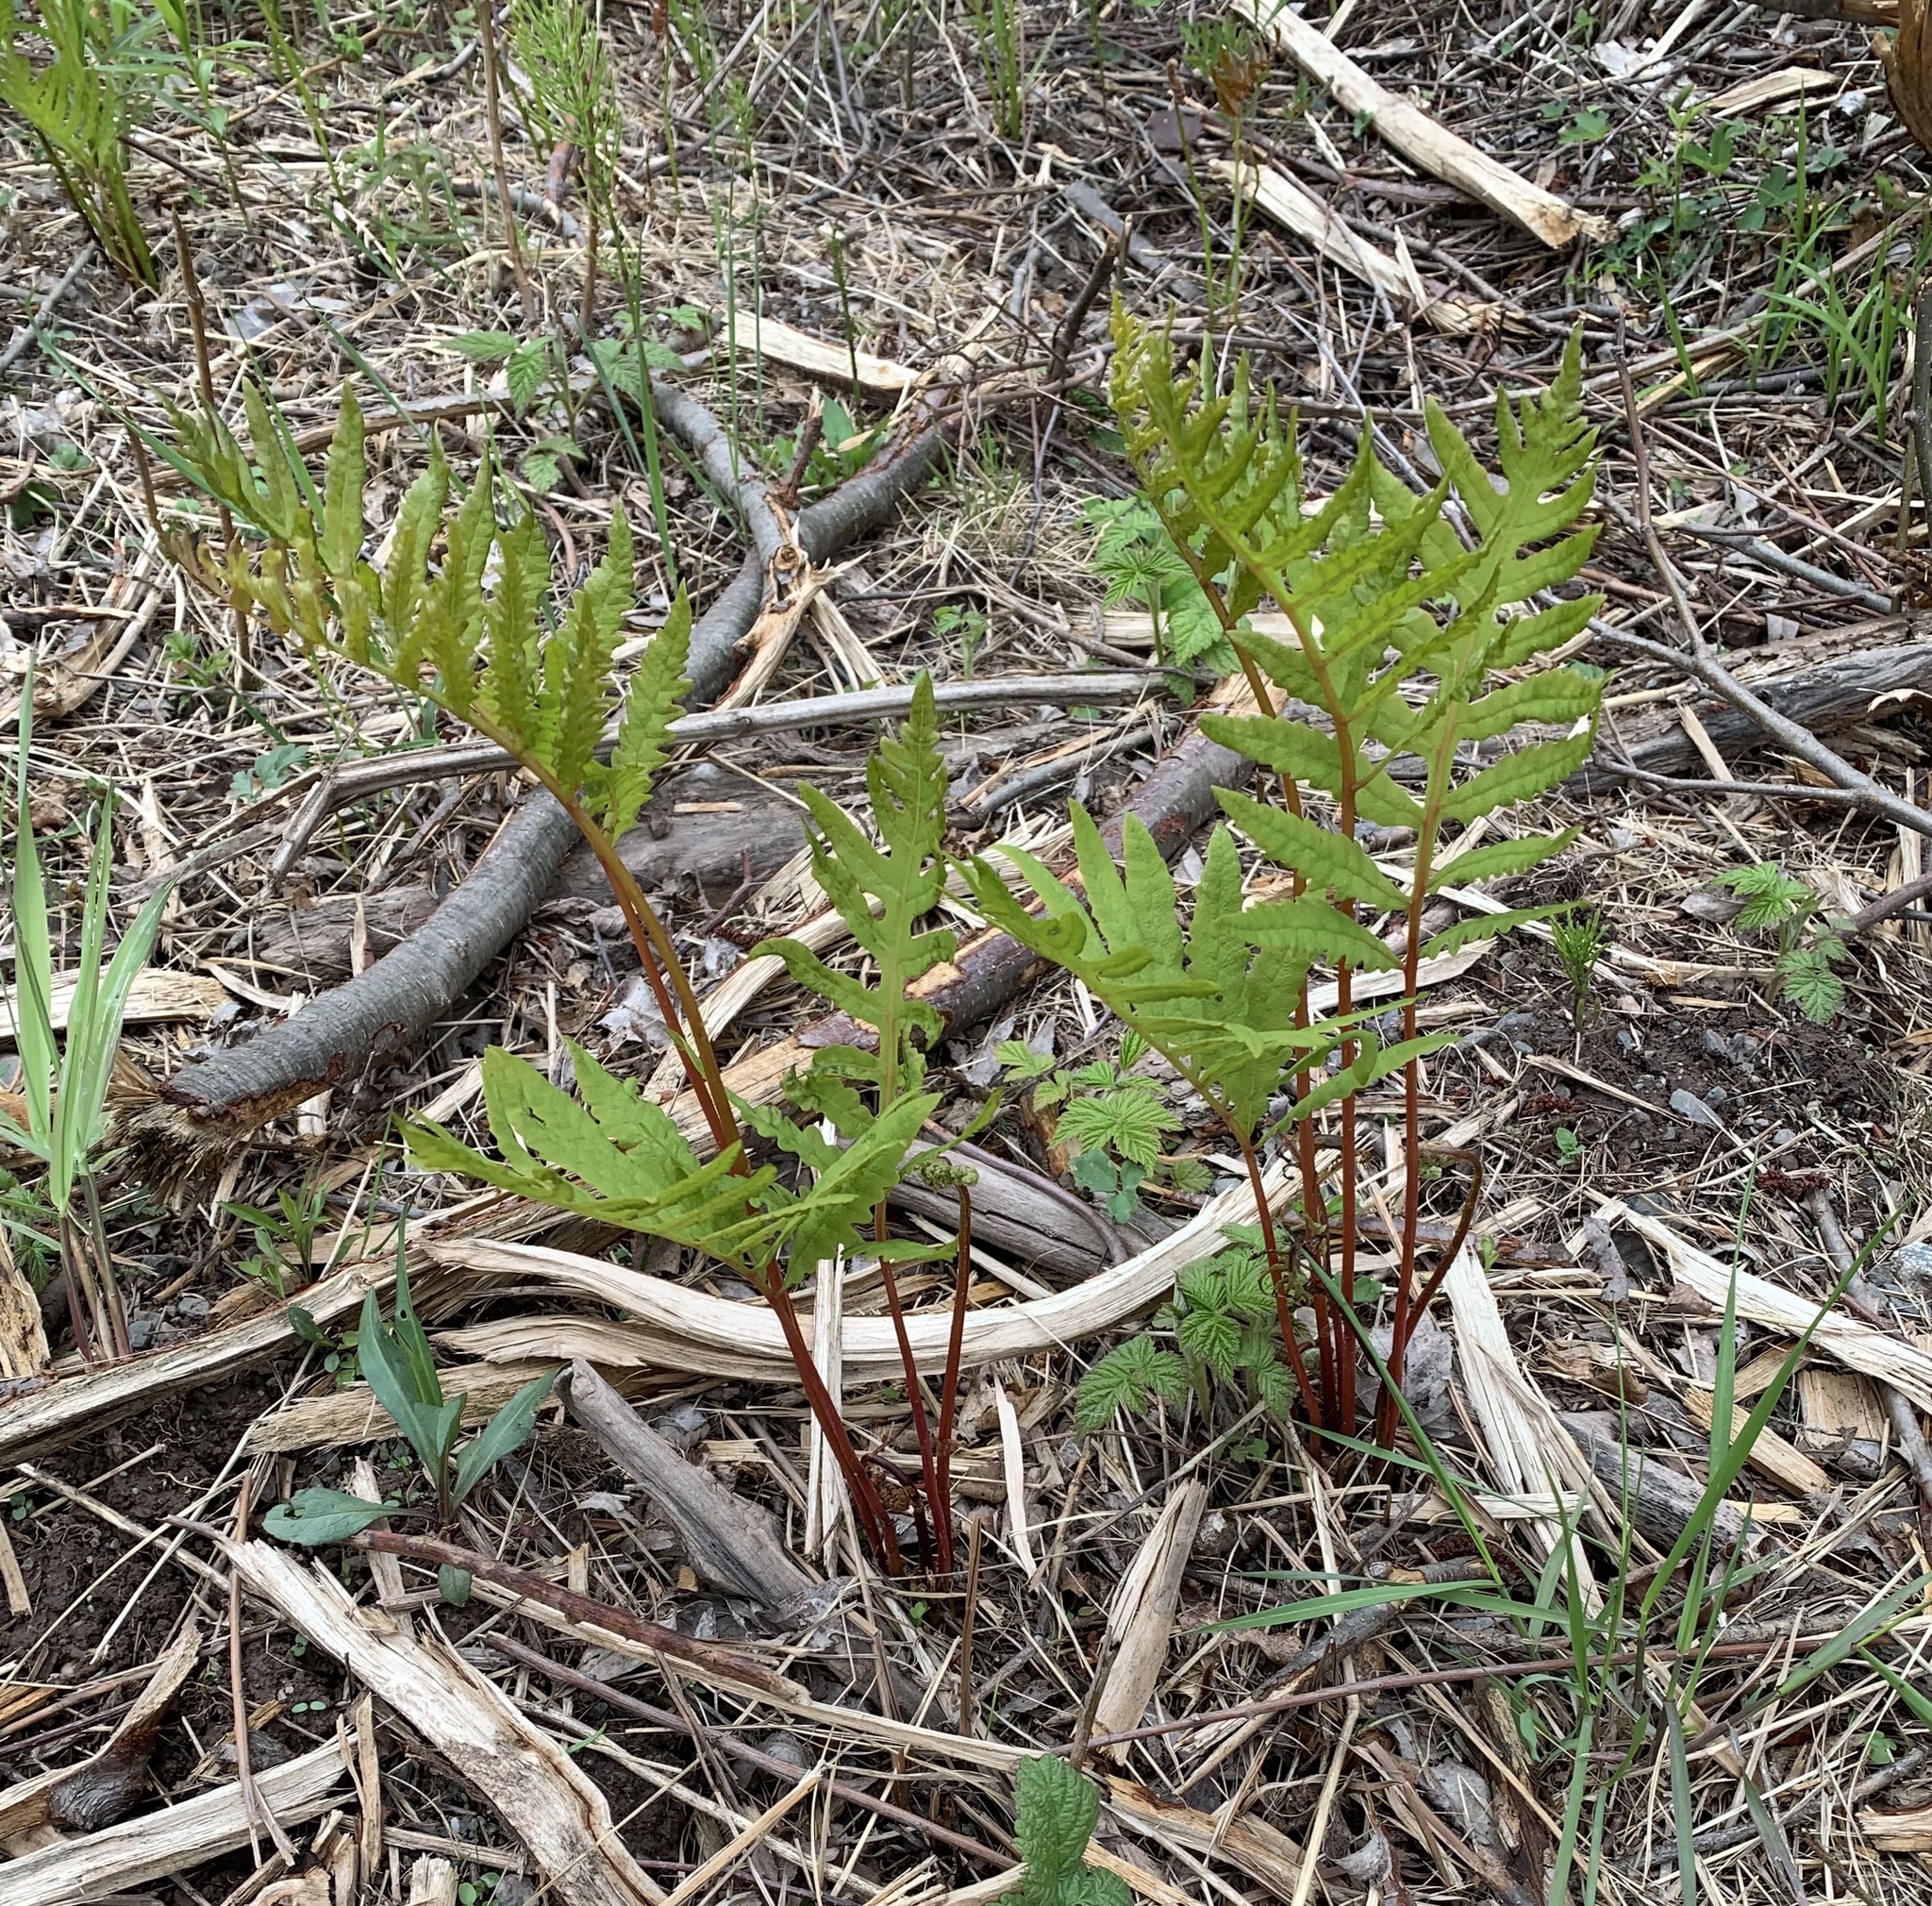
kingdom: Plantae
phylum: Tracheophyta
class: Polypodiopsida
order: Polypodiales
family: Onocleaceae
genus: Onoclea
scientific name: Onoclea sensibilis
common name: Sensitive fern
